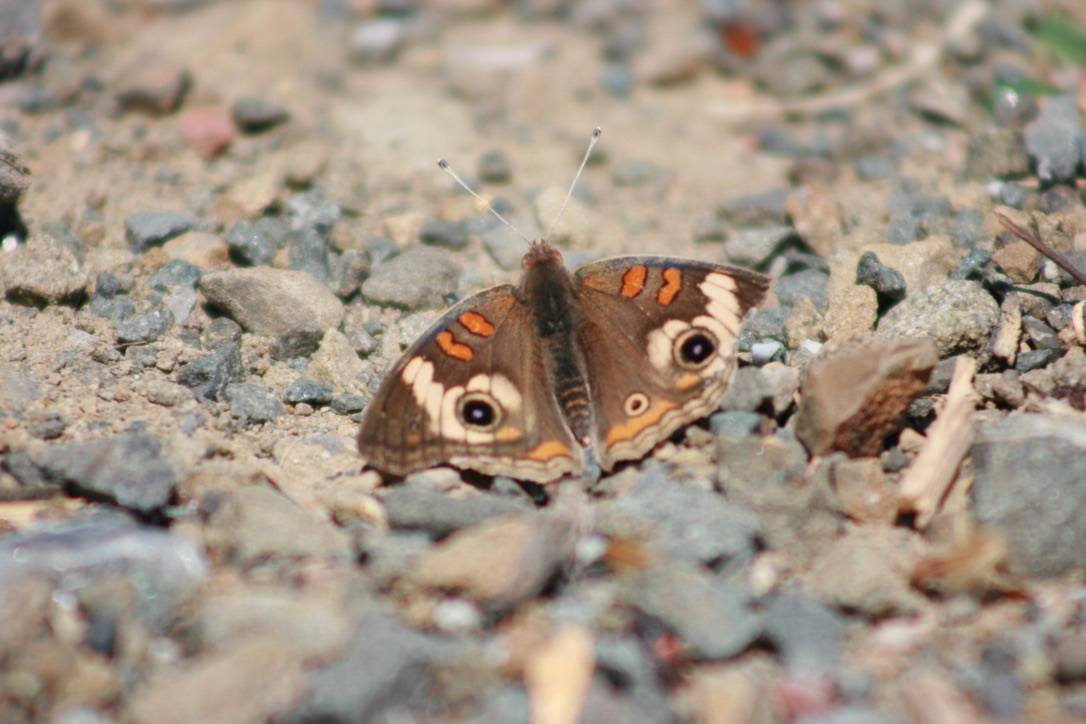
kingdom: Animalia
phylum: Arthropoda
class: Insecta
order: Lepidoptera
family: Nymphalidae
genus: Junonia
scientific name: Junonia grisea
